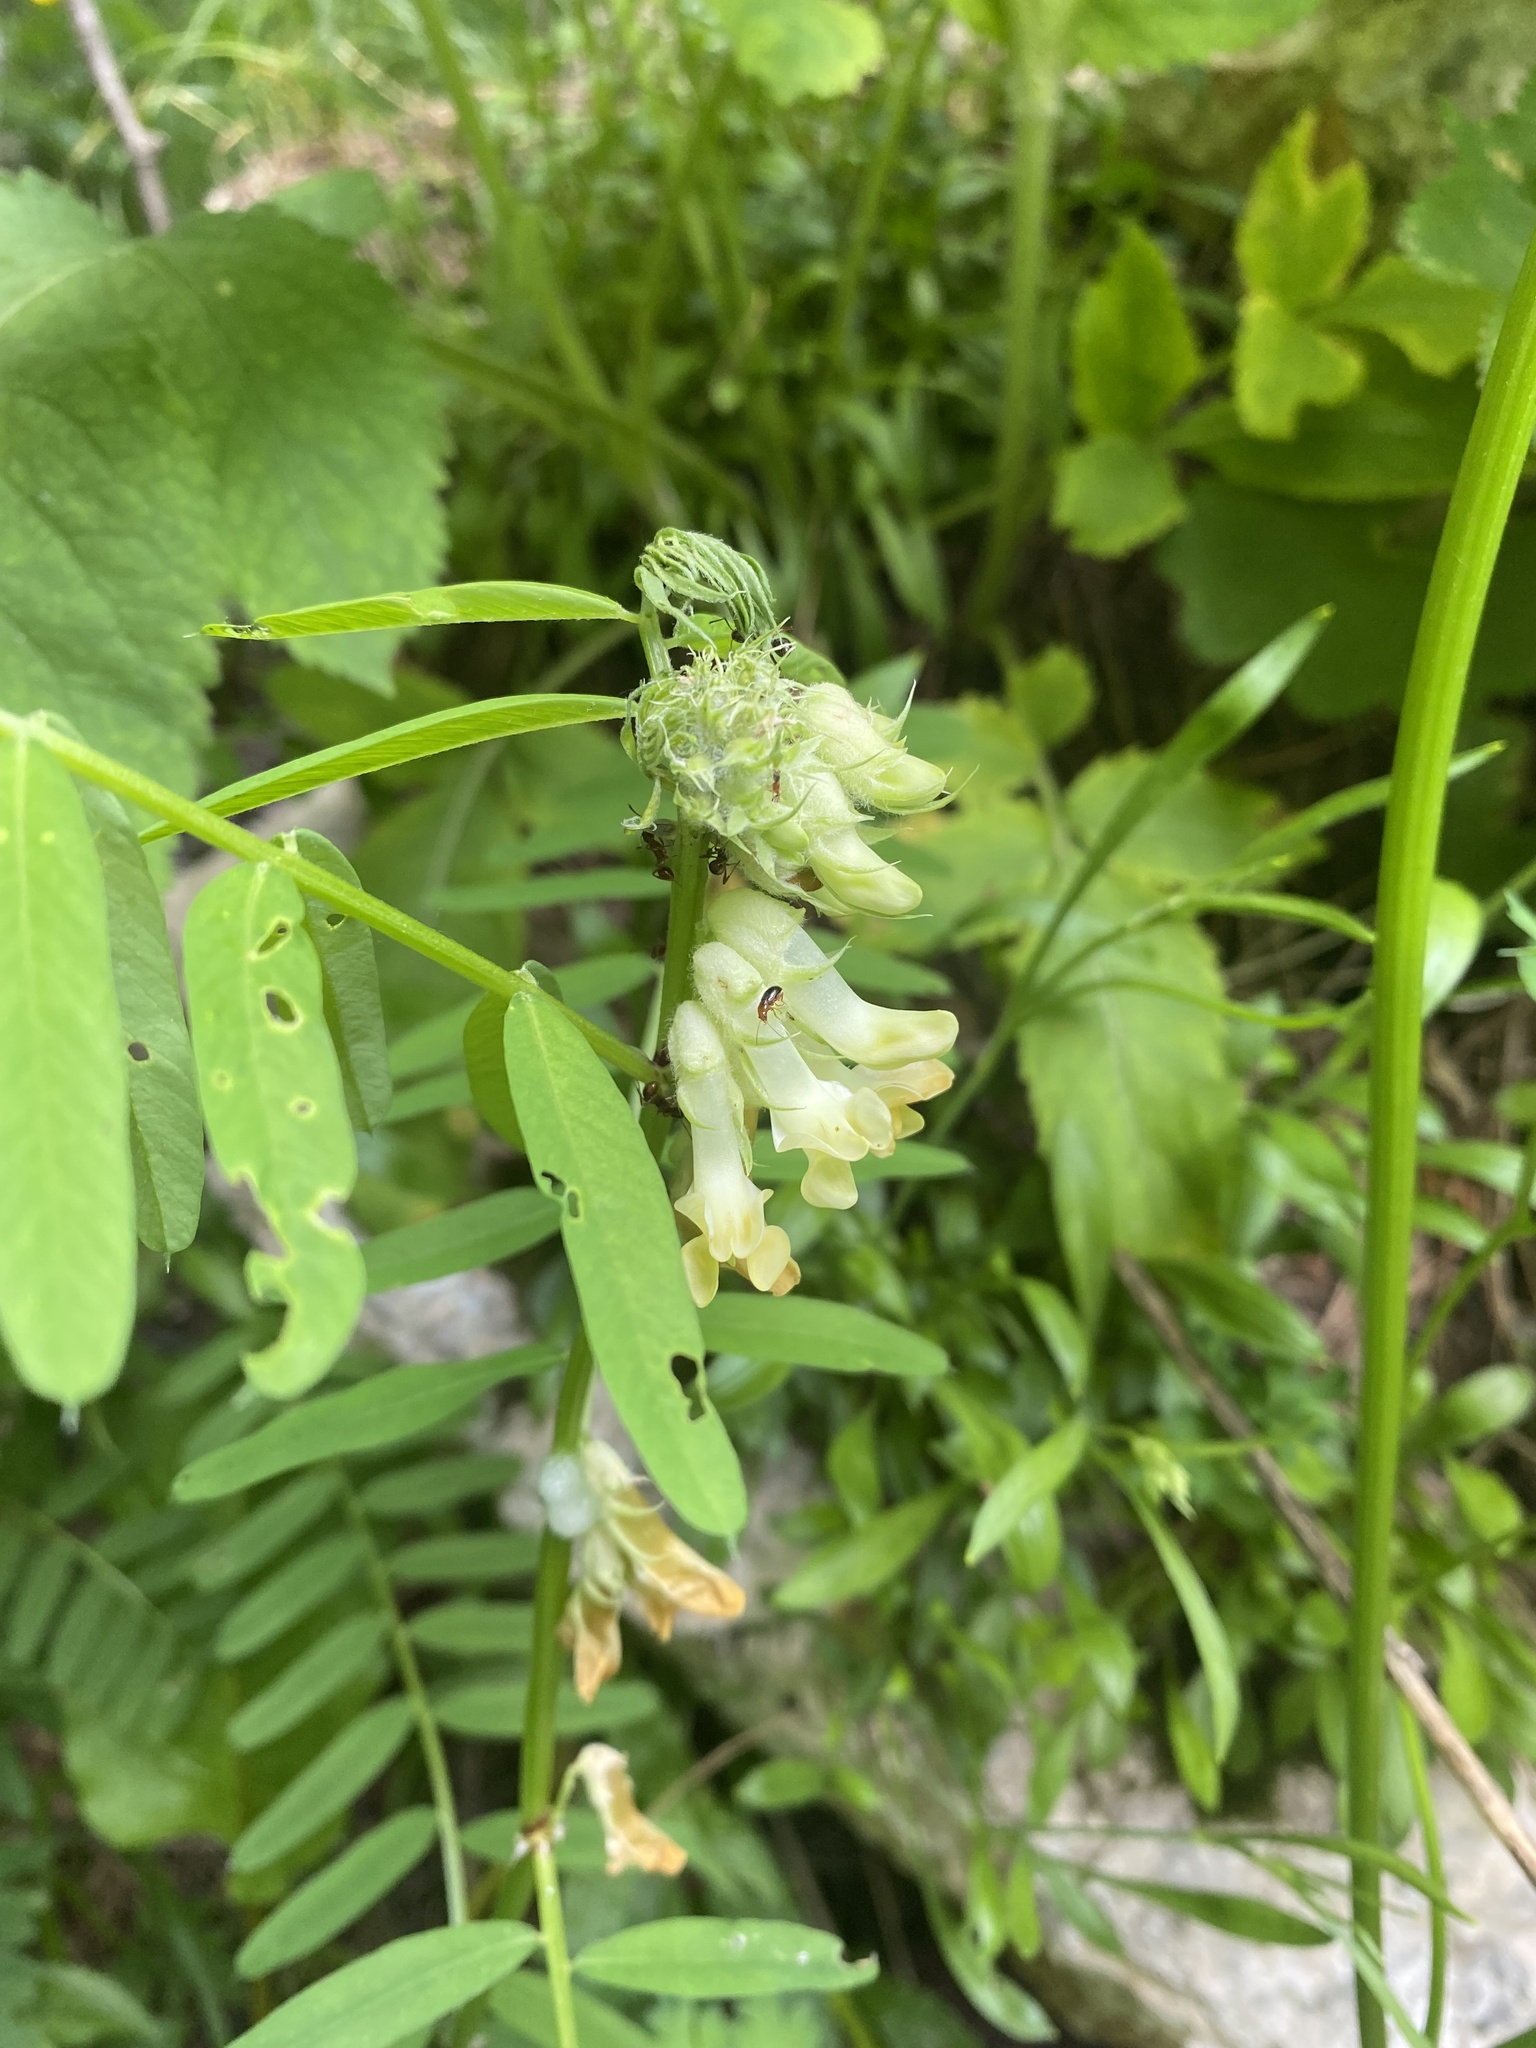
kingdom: Plantae
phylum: Tracheophyta
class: Magnoliopsida
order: Fabales
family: Fabaceae
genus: Vicia
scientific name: Vicia balansae
